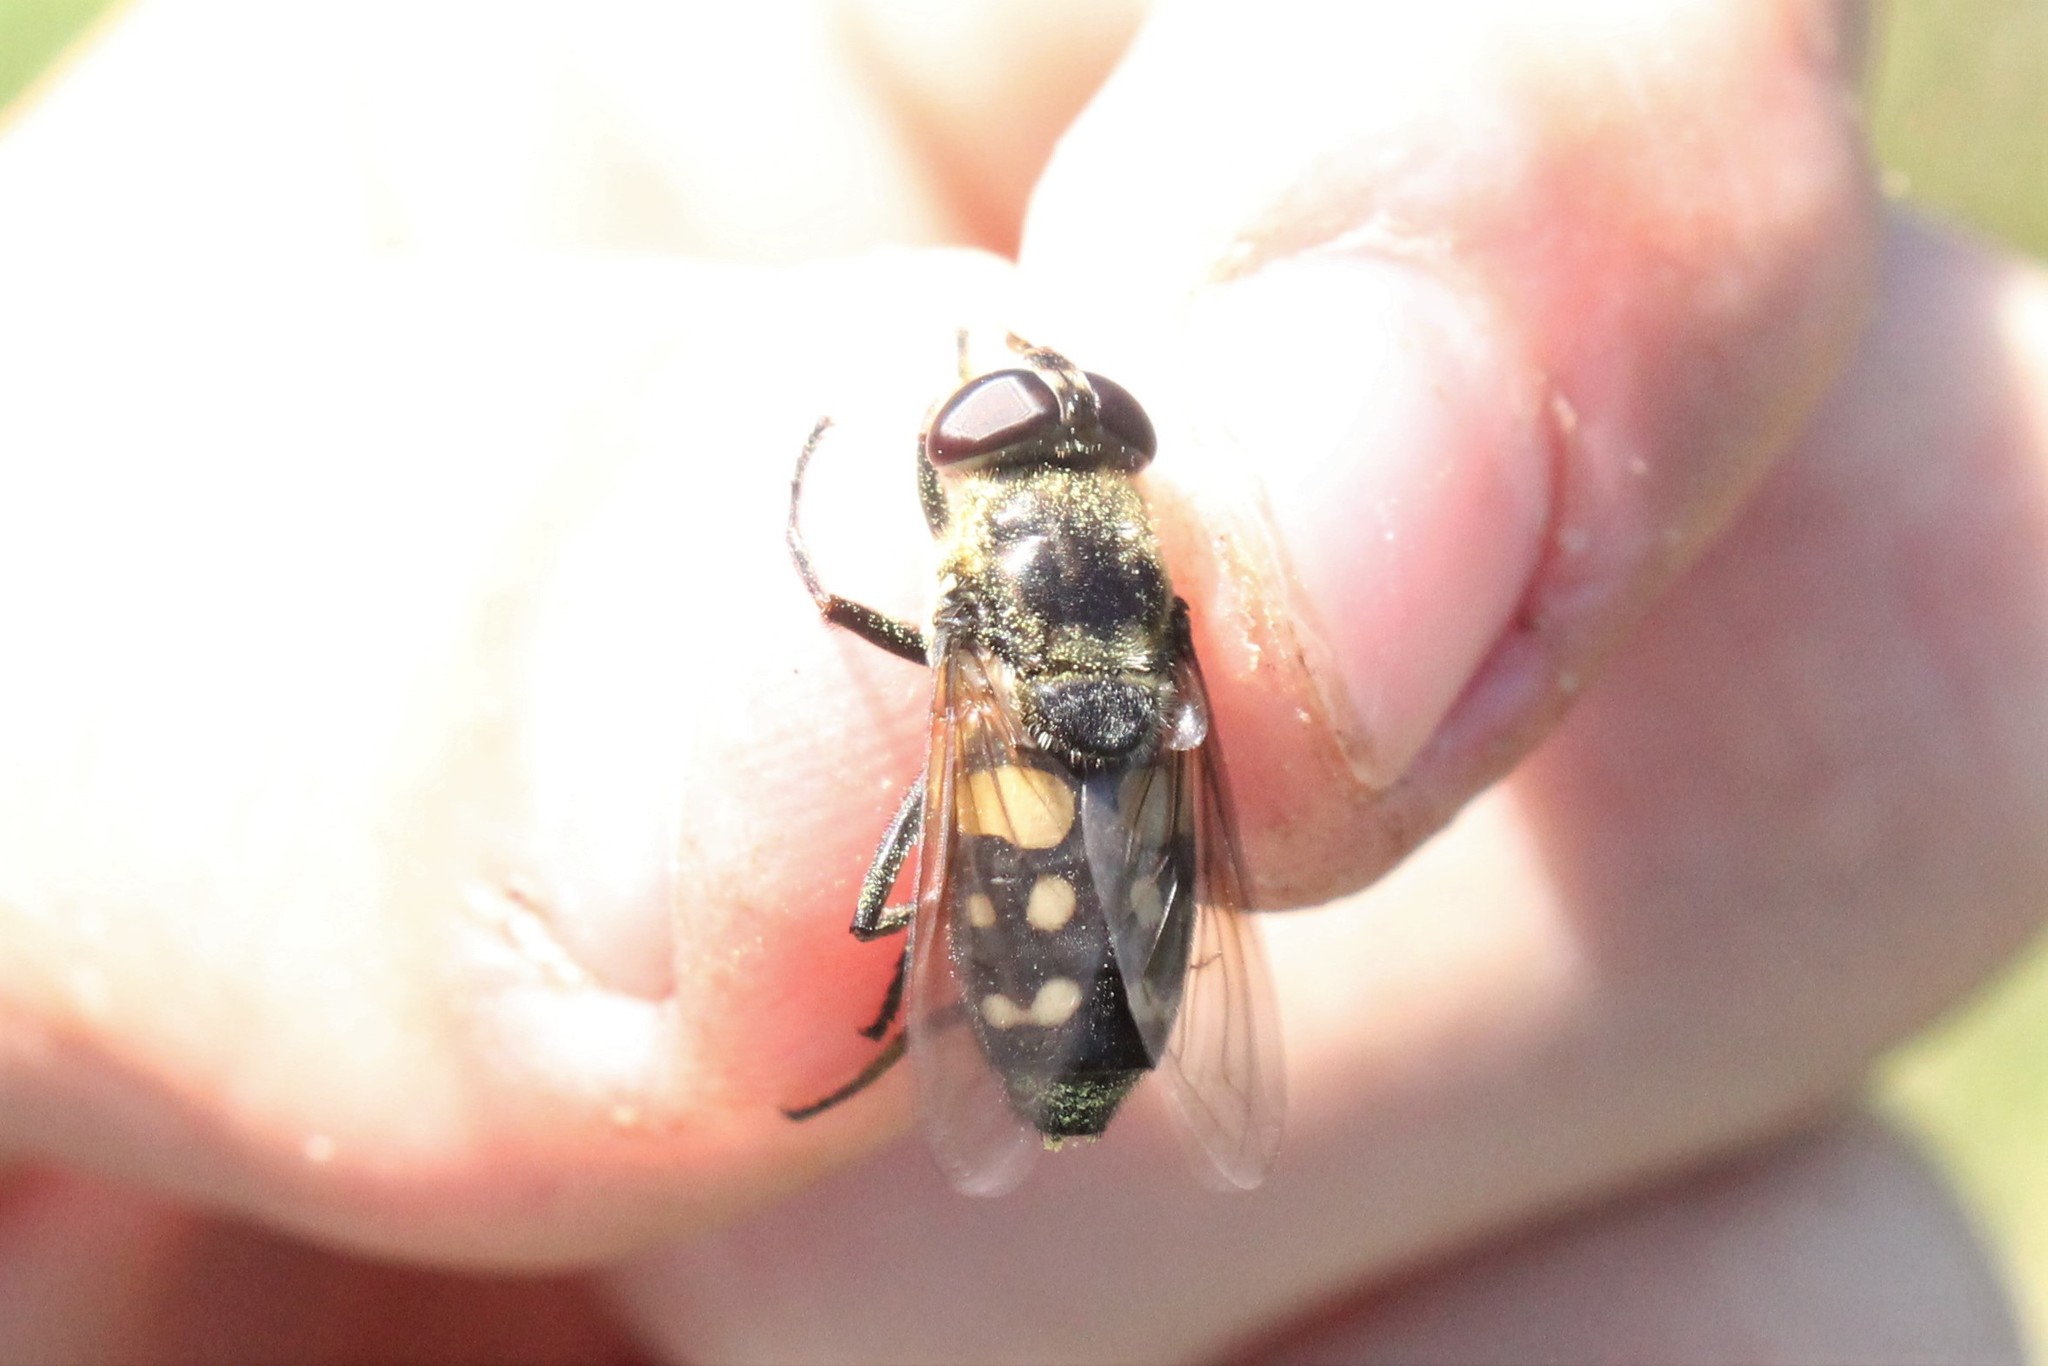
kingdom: Animalia
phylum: Arthropoda
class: Insecta
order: Diptera
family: Syrphidae
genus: Sericomyia
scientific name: Sericomyia lata
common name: White-spotted pond fly
